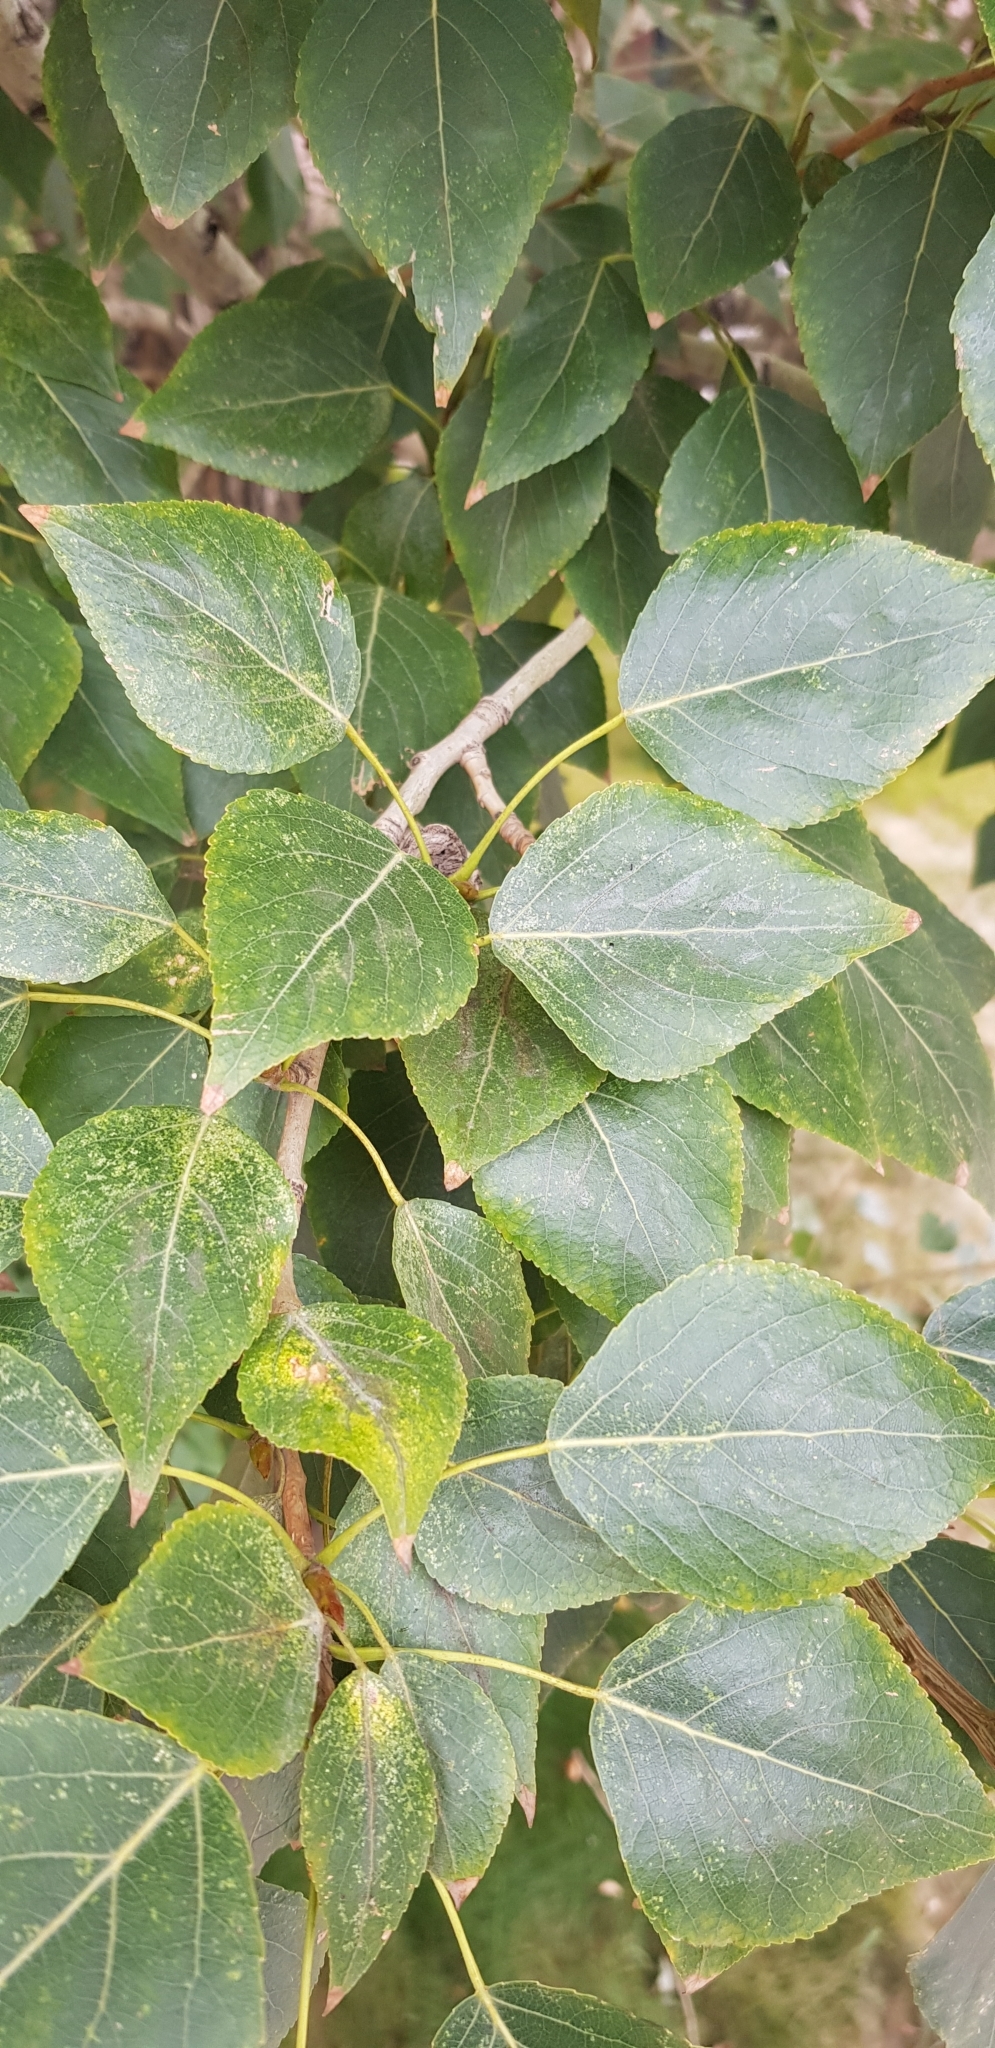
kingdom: Plantae
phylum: Tracheophyta
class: Magnoliopsida
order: Malpighiales
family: Salicaceae
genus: Populus
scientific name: Populus laurifolia
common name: Laurel-leaf poplar
